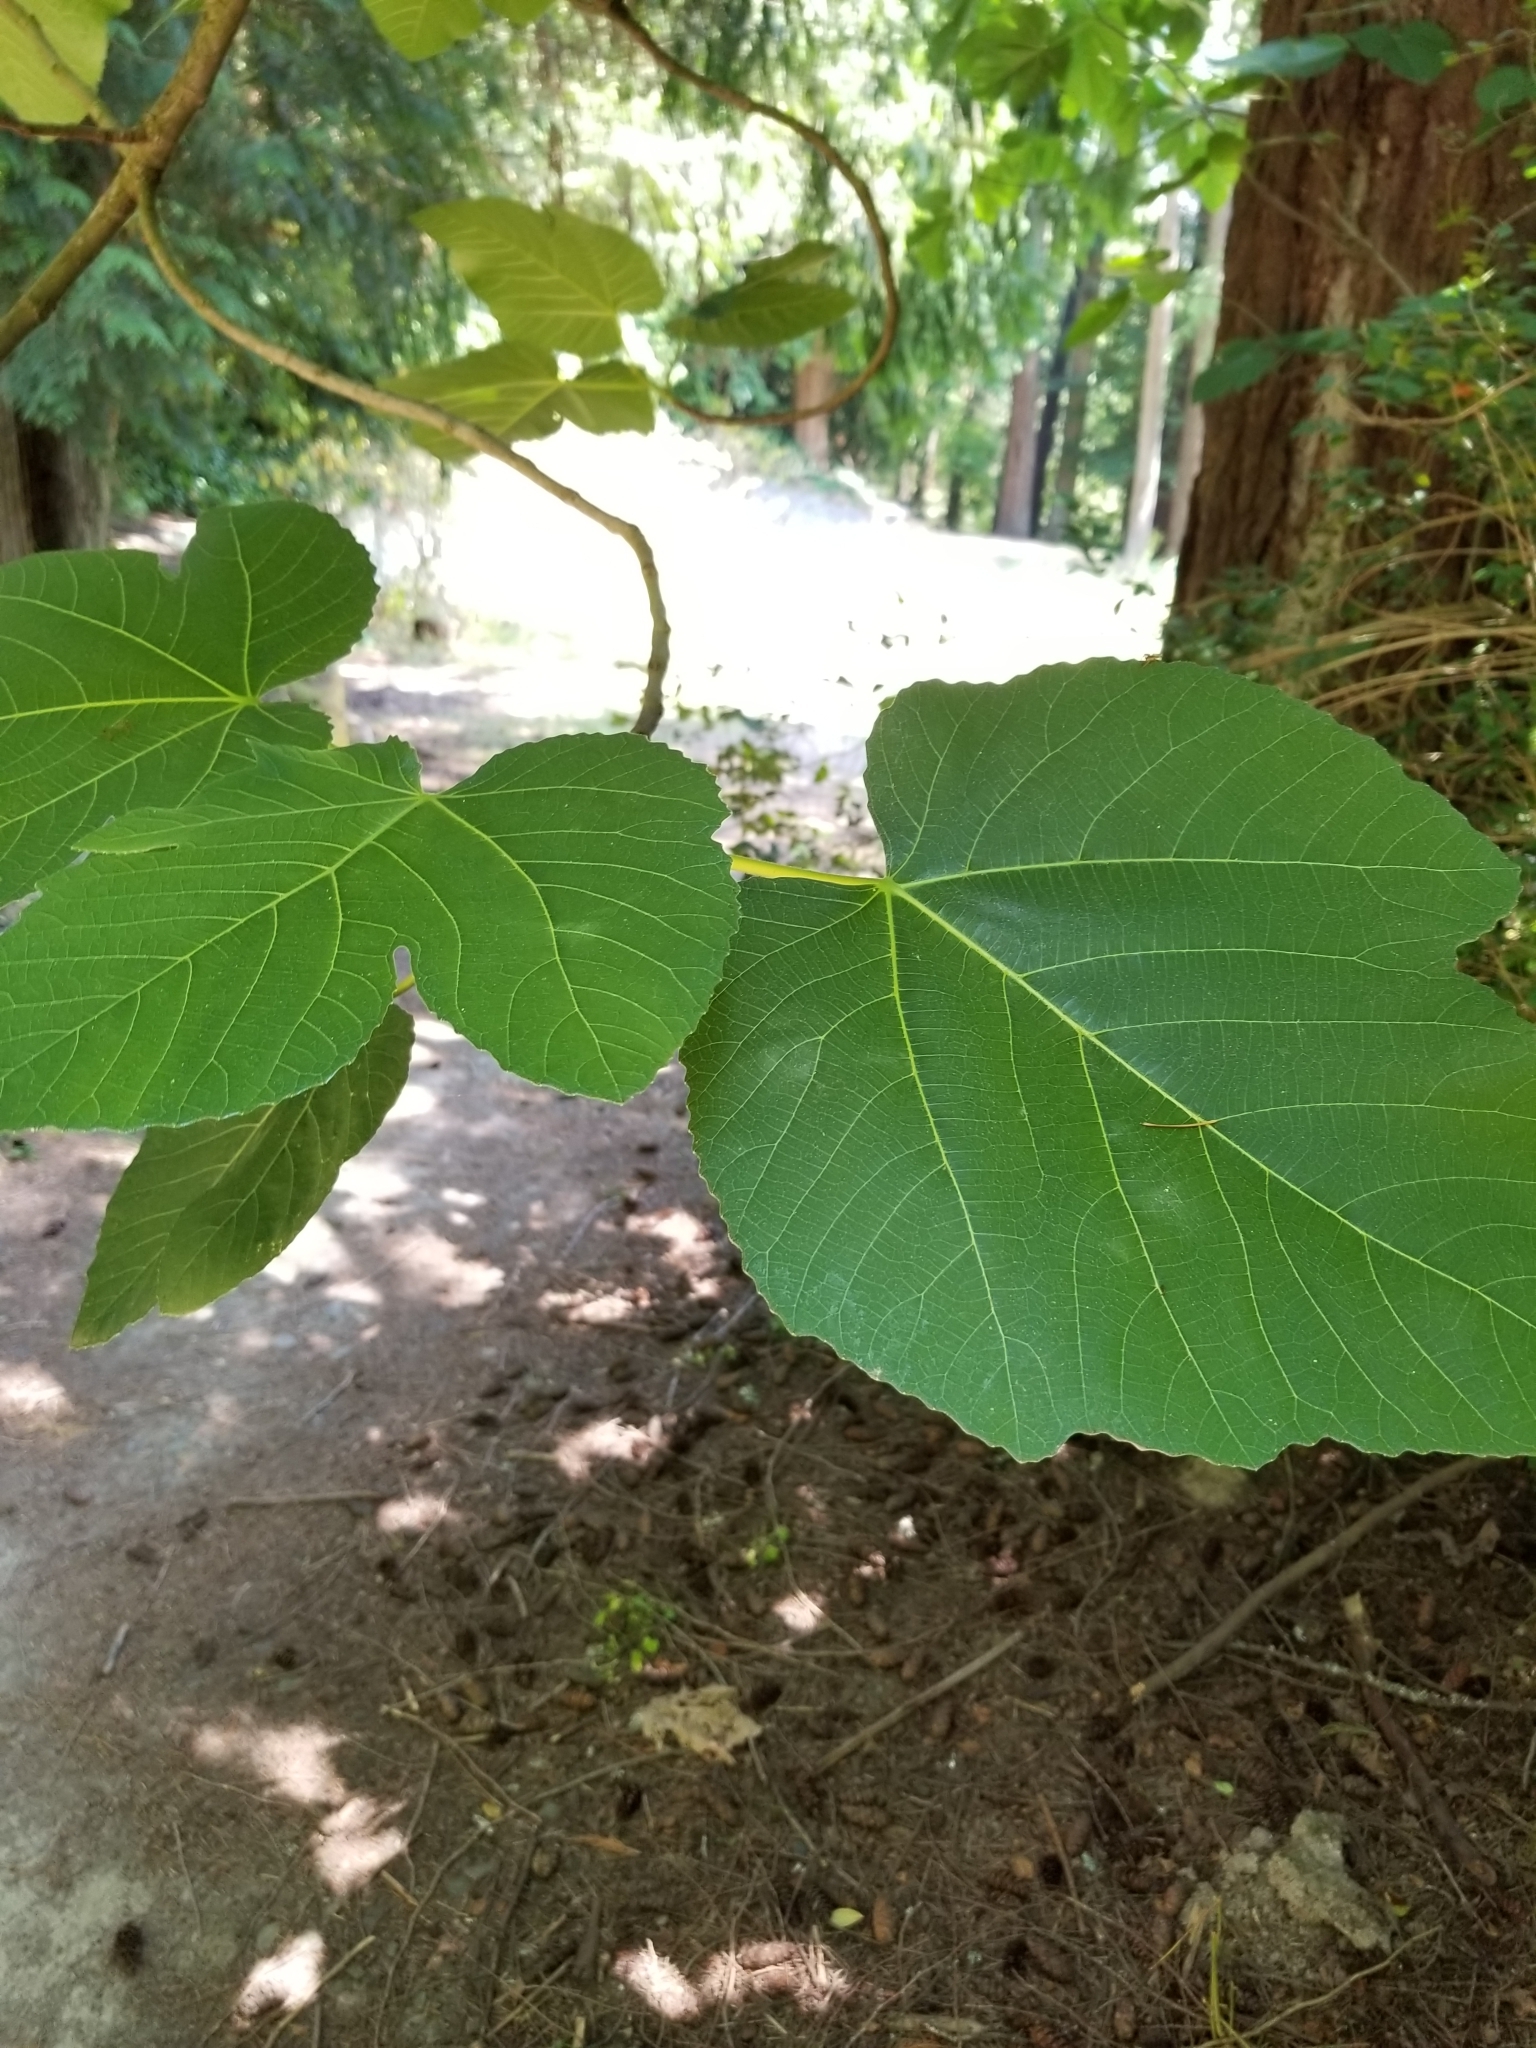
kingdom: Plantae
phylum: Tracheophyta
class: Magnoliopsida
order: Rosales
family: Moraceae
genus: Ficus
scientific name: Ficus carica
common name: Fig
